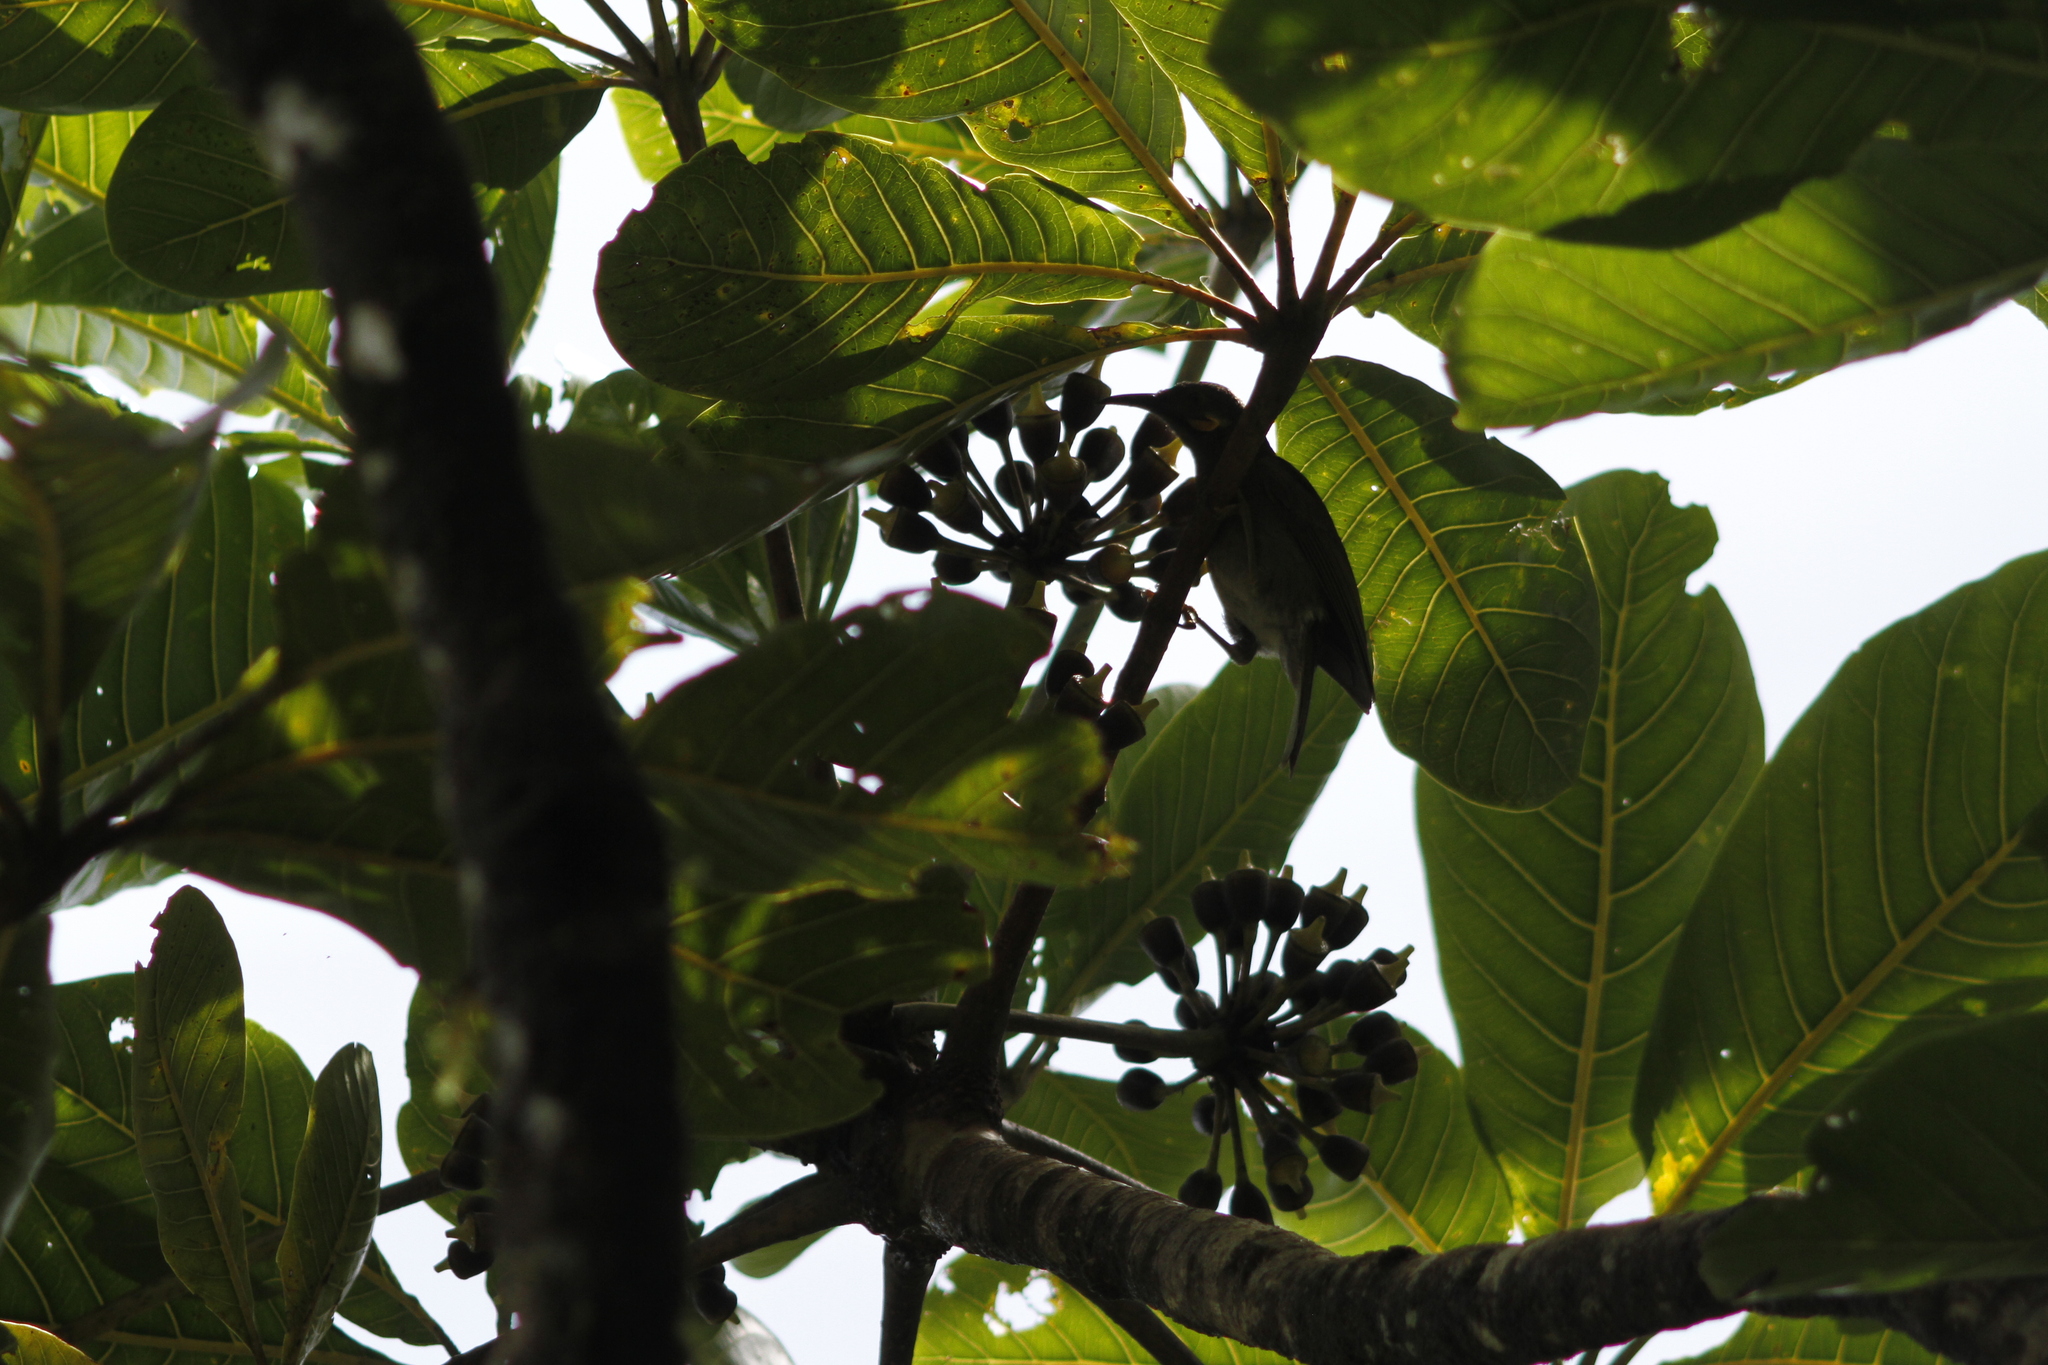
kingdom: Animalia
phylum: Chordata
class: Aves
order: Passeriformes
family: Meliphagidae
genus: Foulehaio
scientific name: Foulehaio taviunensis
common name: Fiji wattled honeyeater
